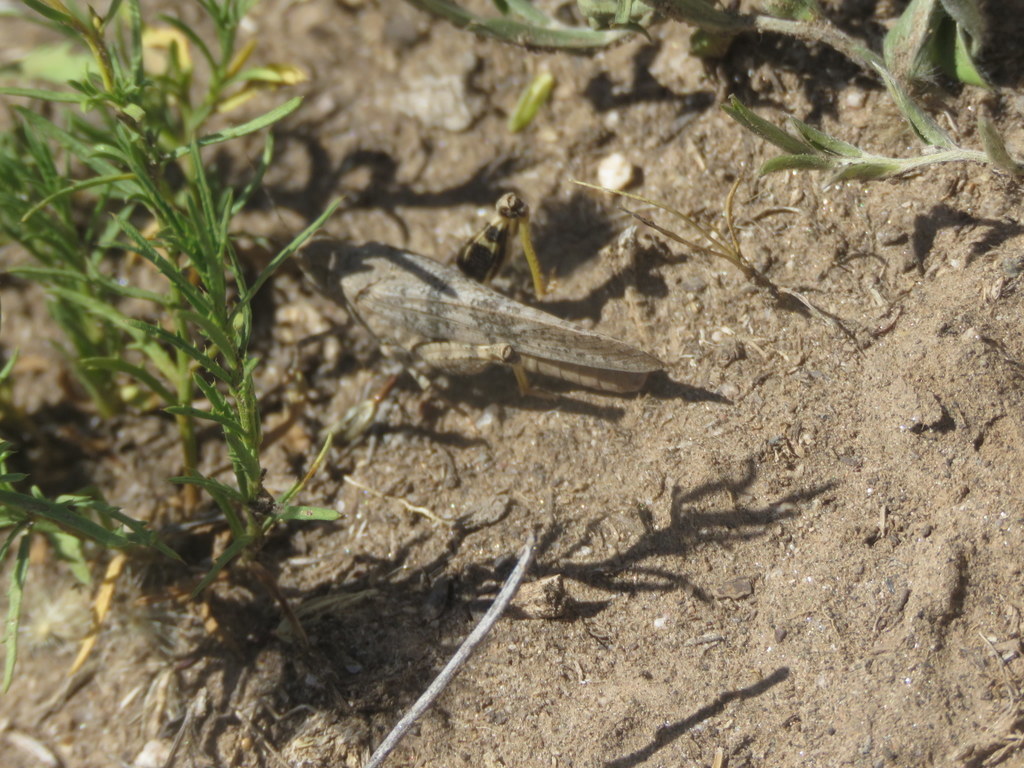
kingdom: Animalia
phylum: Arthropoda
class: Insecta
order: Orthoptera
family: Acrididae
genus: Trimerotropis
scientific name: Trimerotropis pallidipennis
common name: Pallid-winged grasshopper
